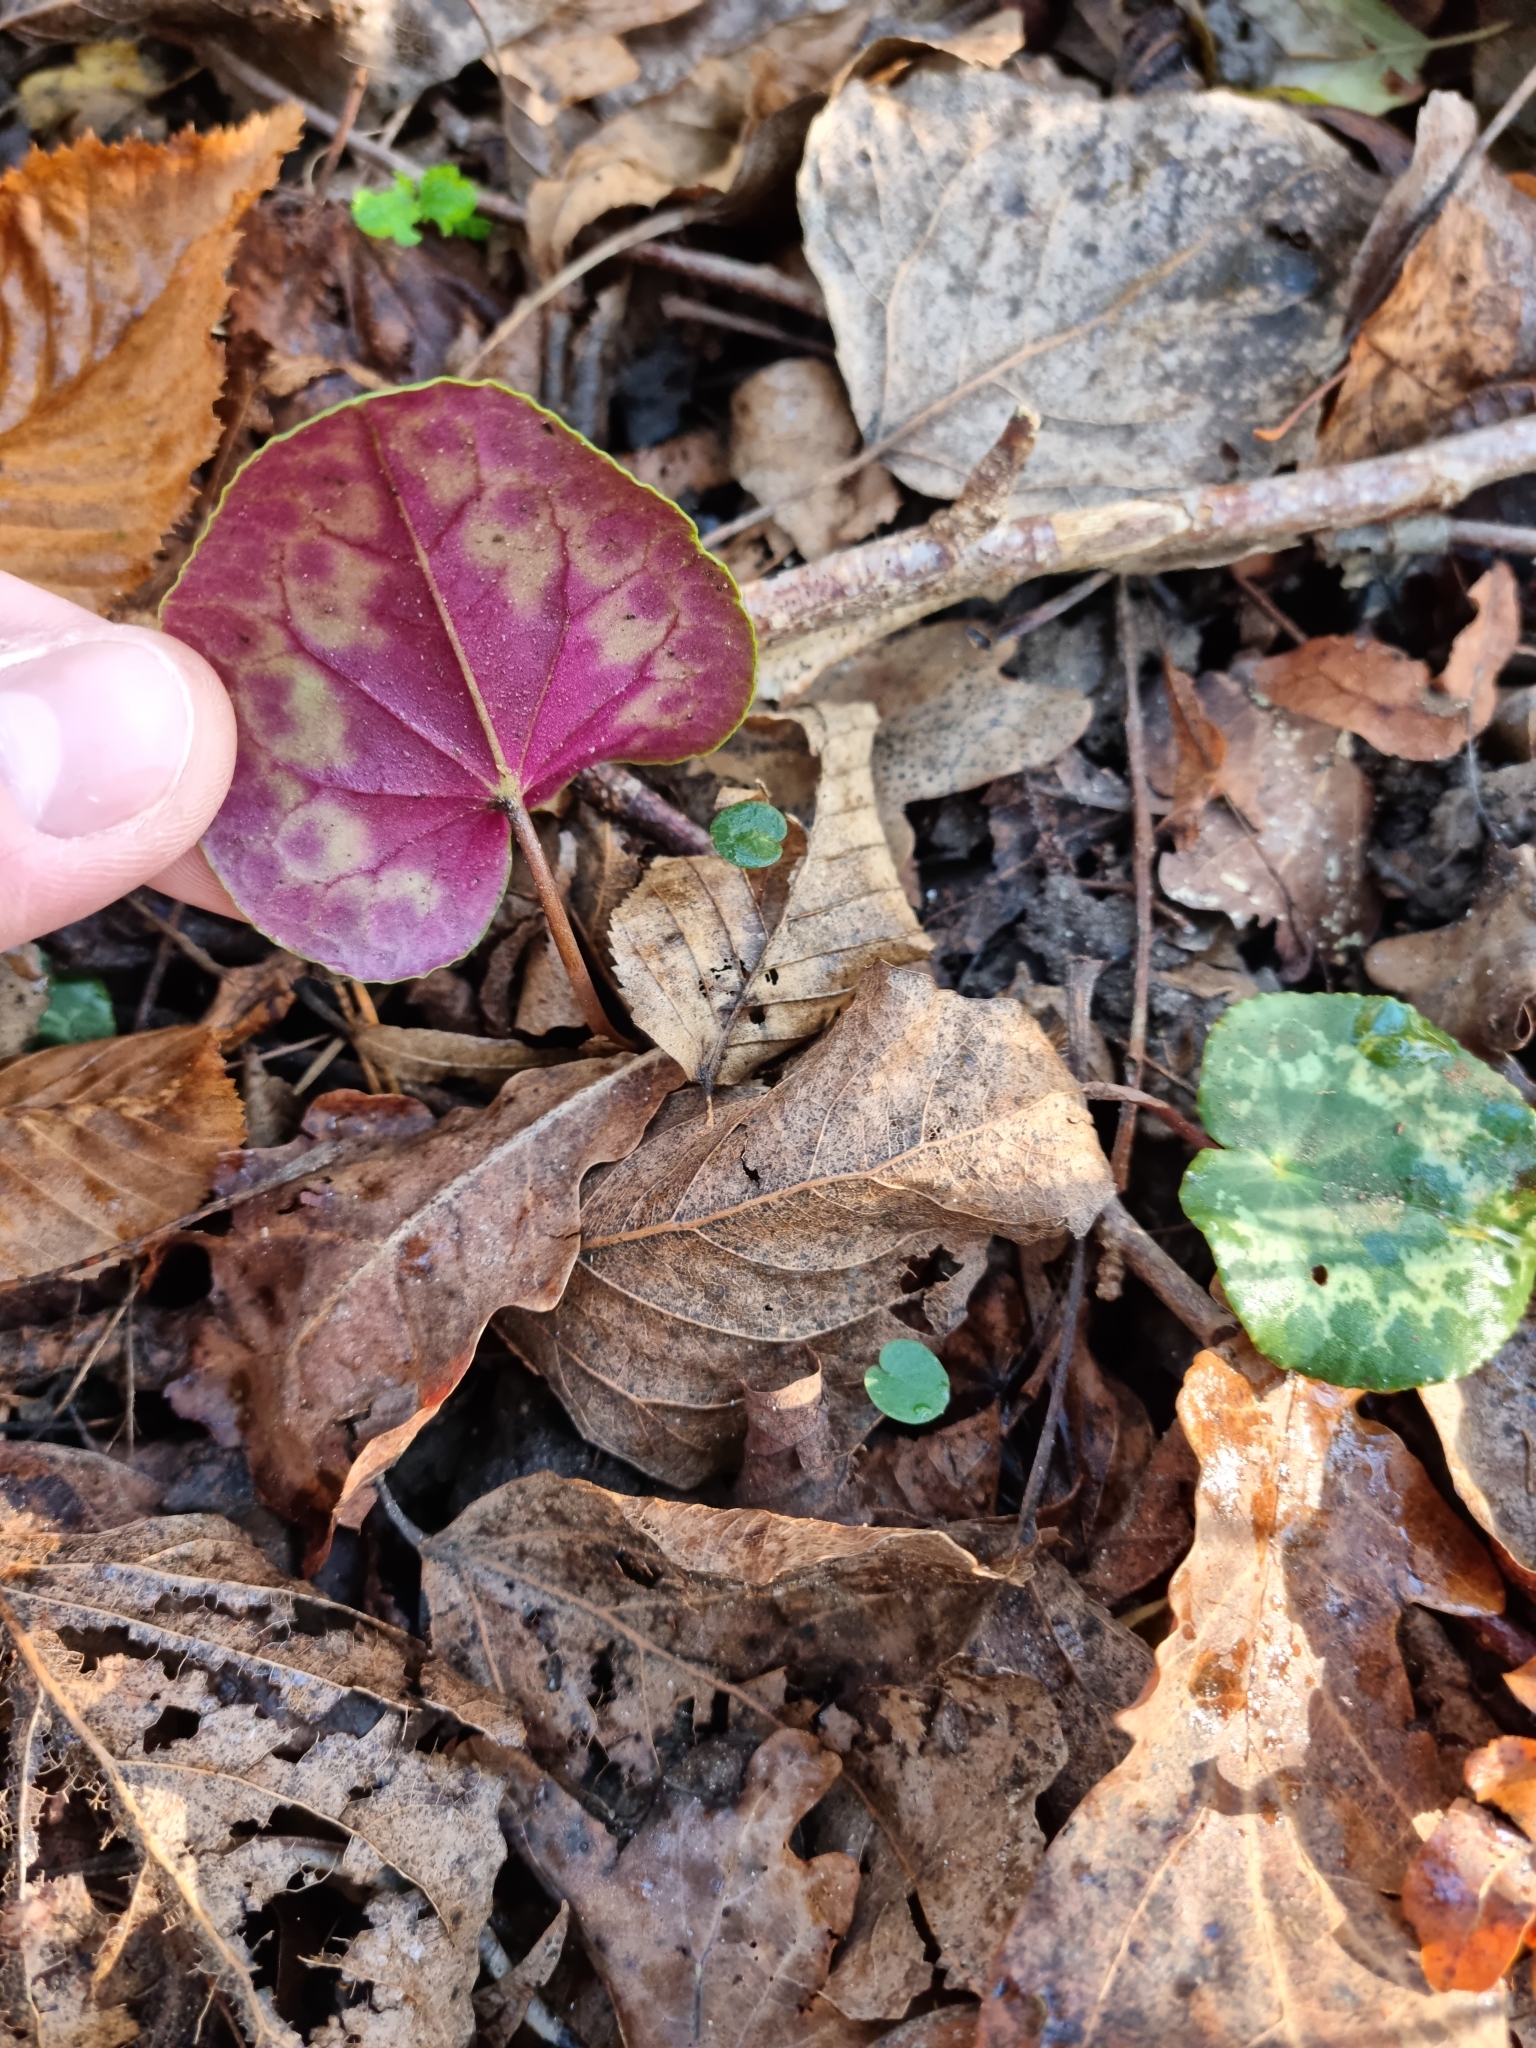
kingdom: Plantae
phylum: Tracheophyta
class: Magnoliopsida
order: Ericales
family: Primulaceae
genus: Cyclamen
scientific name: Cyclamen purpurascens
